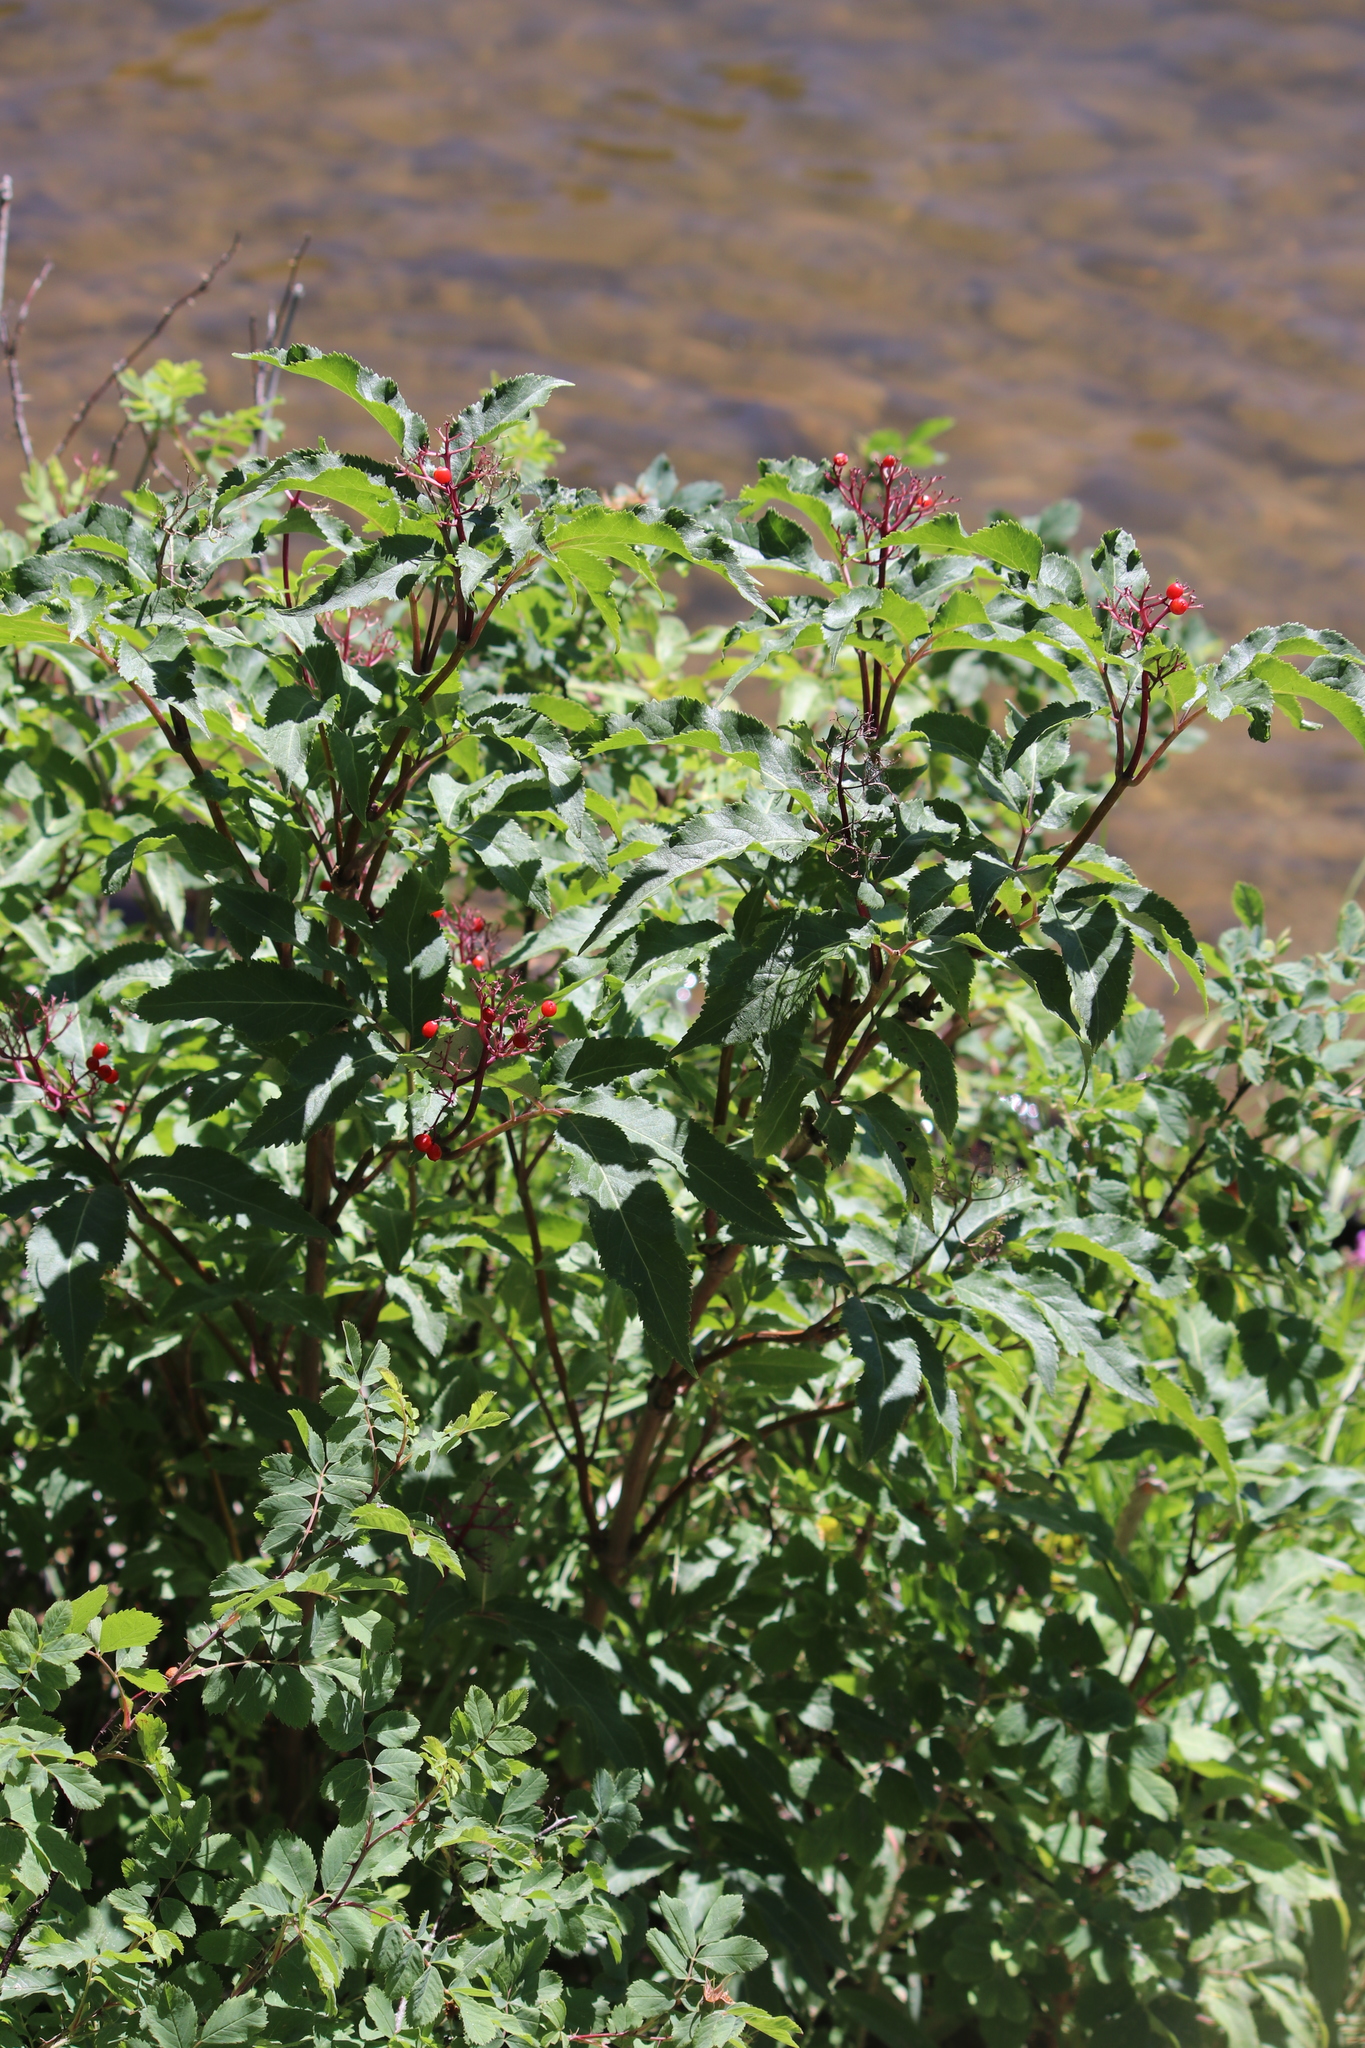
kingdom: Plantae
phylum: Tracheophyta
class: Magnoliopsida
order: Dipsacales
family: Viburnaceae
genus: Sambucus
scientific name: Sambucus racemosa
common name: Red-berried elder
